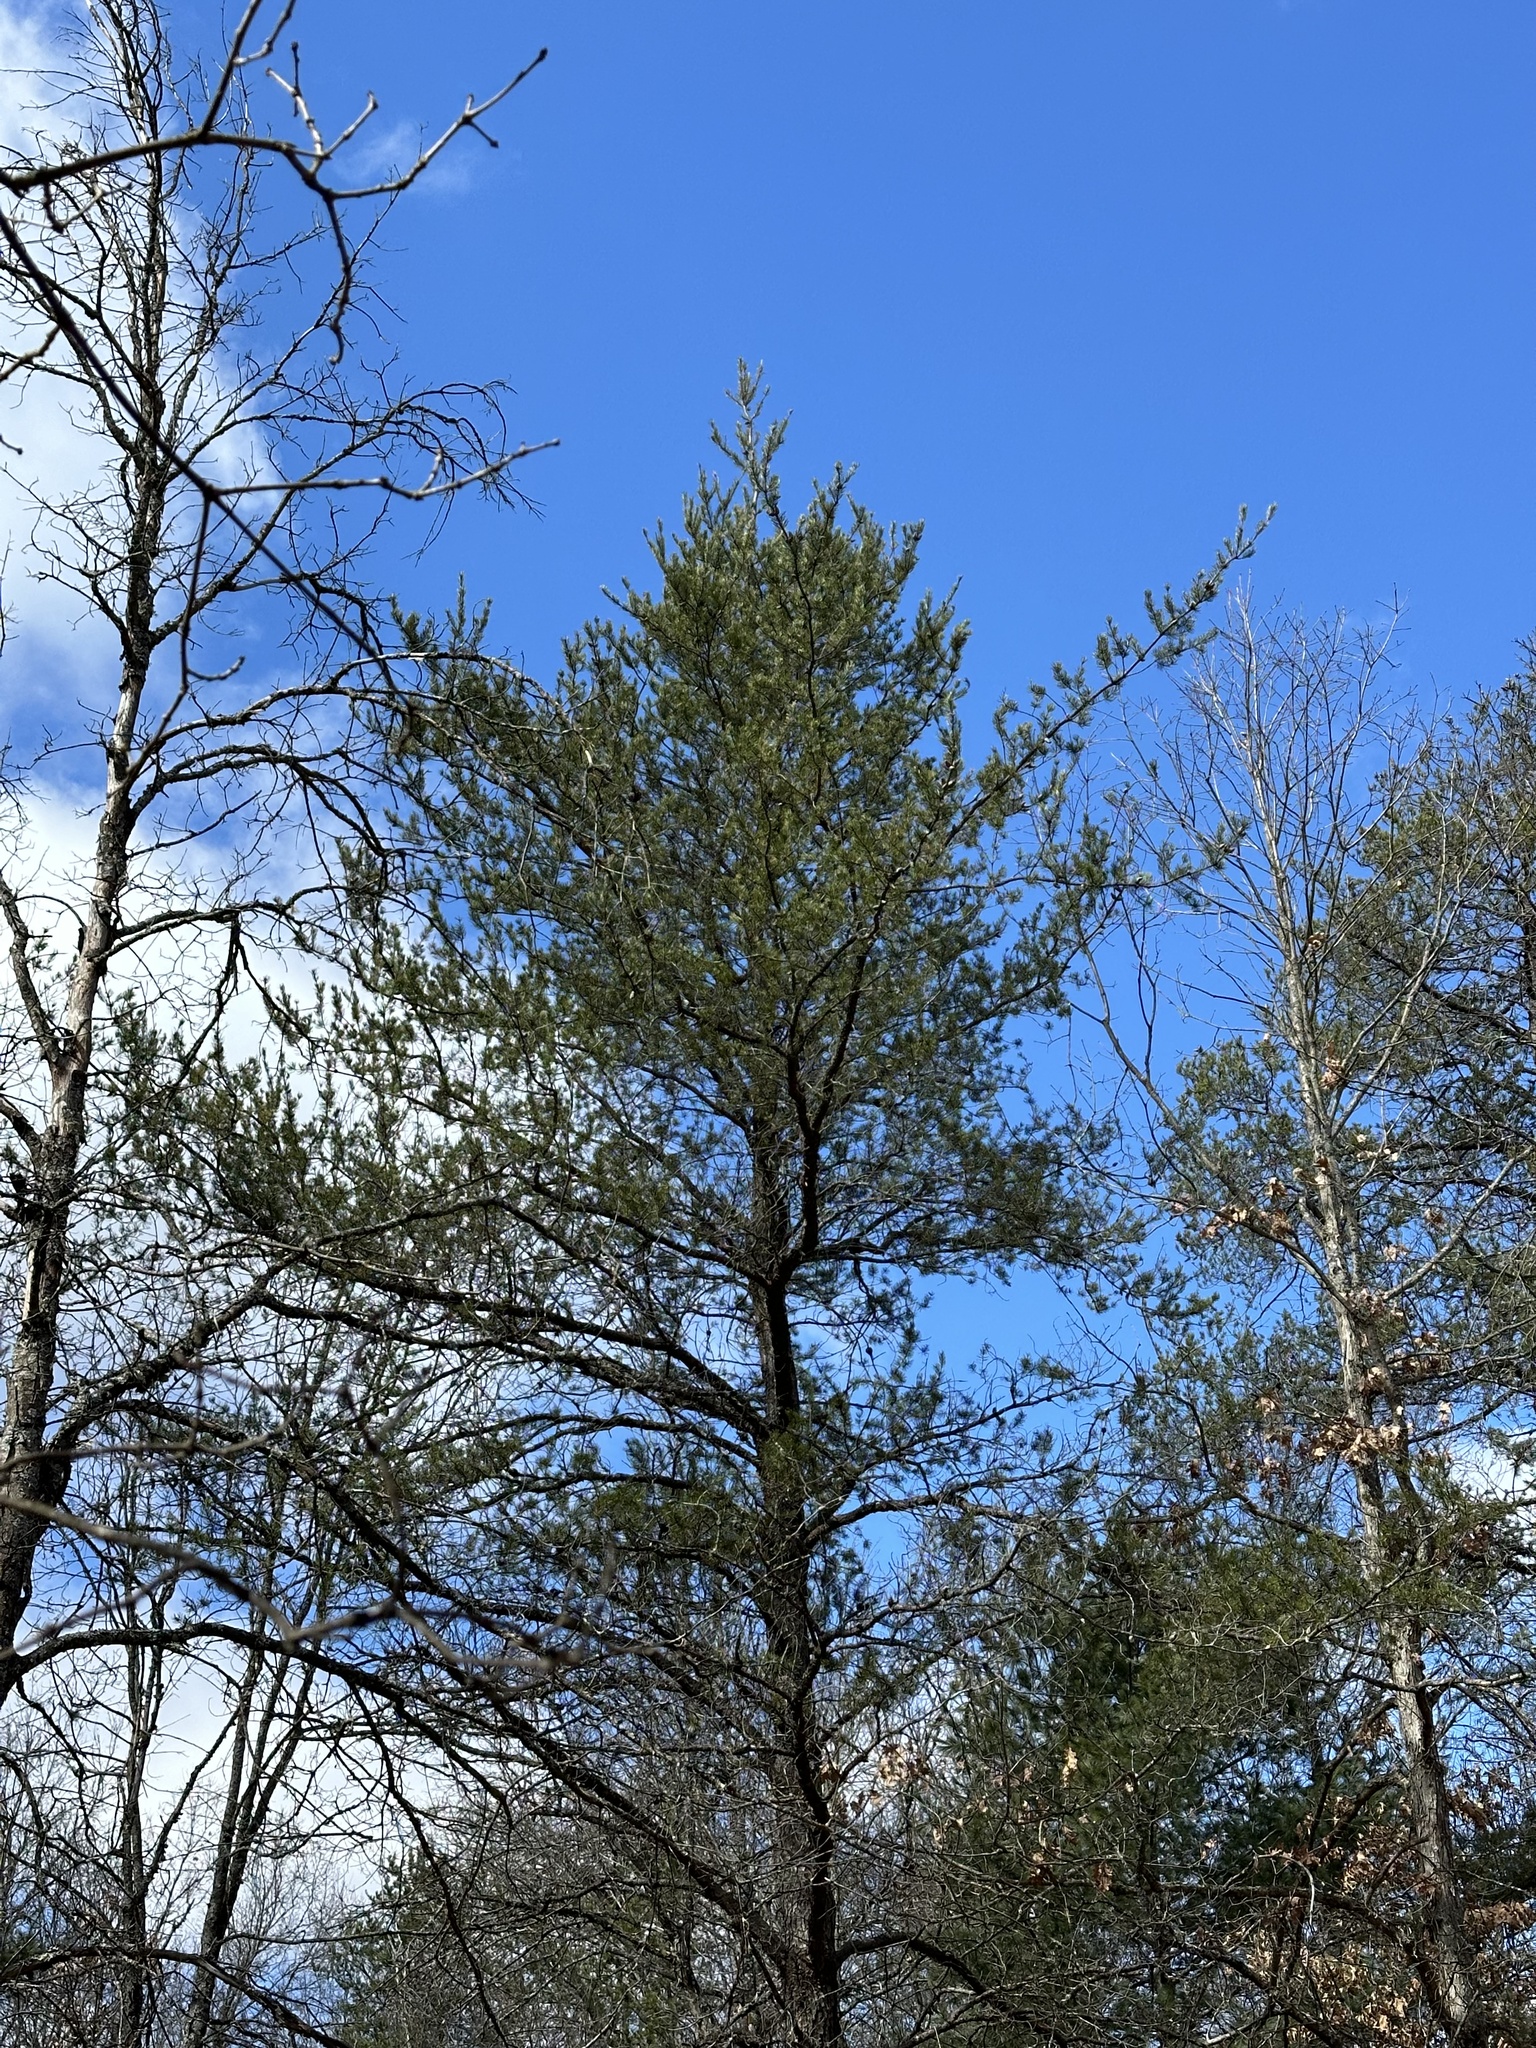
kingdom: Plantae
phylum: Tracheophyta
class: Pinopsida
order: Pinales
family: Pinaceae
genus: Pinus
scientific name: Pinus banksiana
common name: Jack pine
